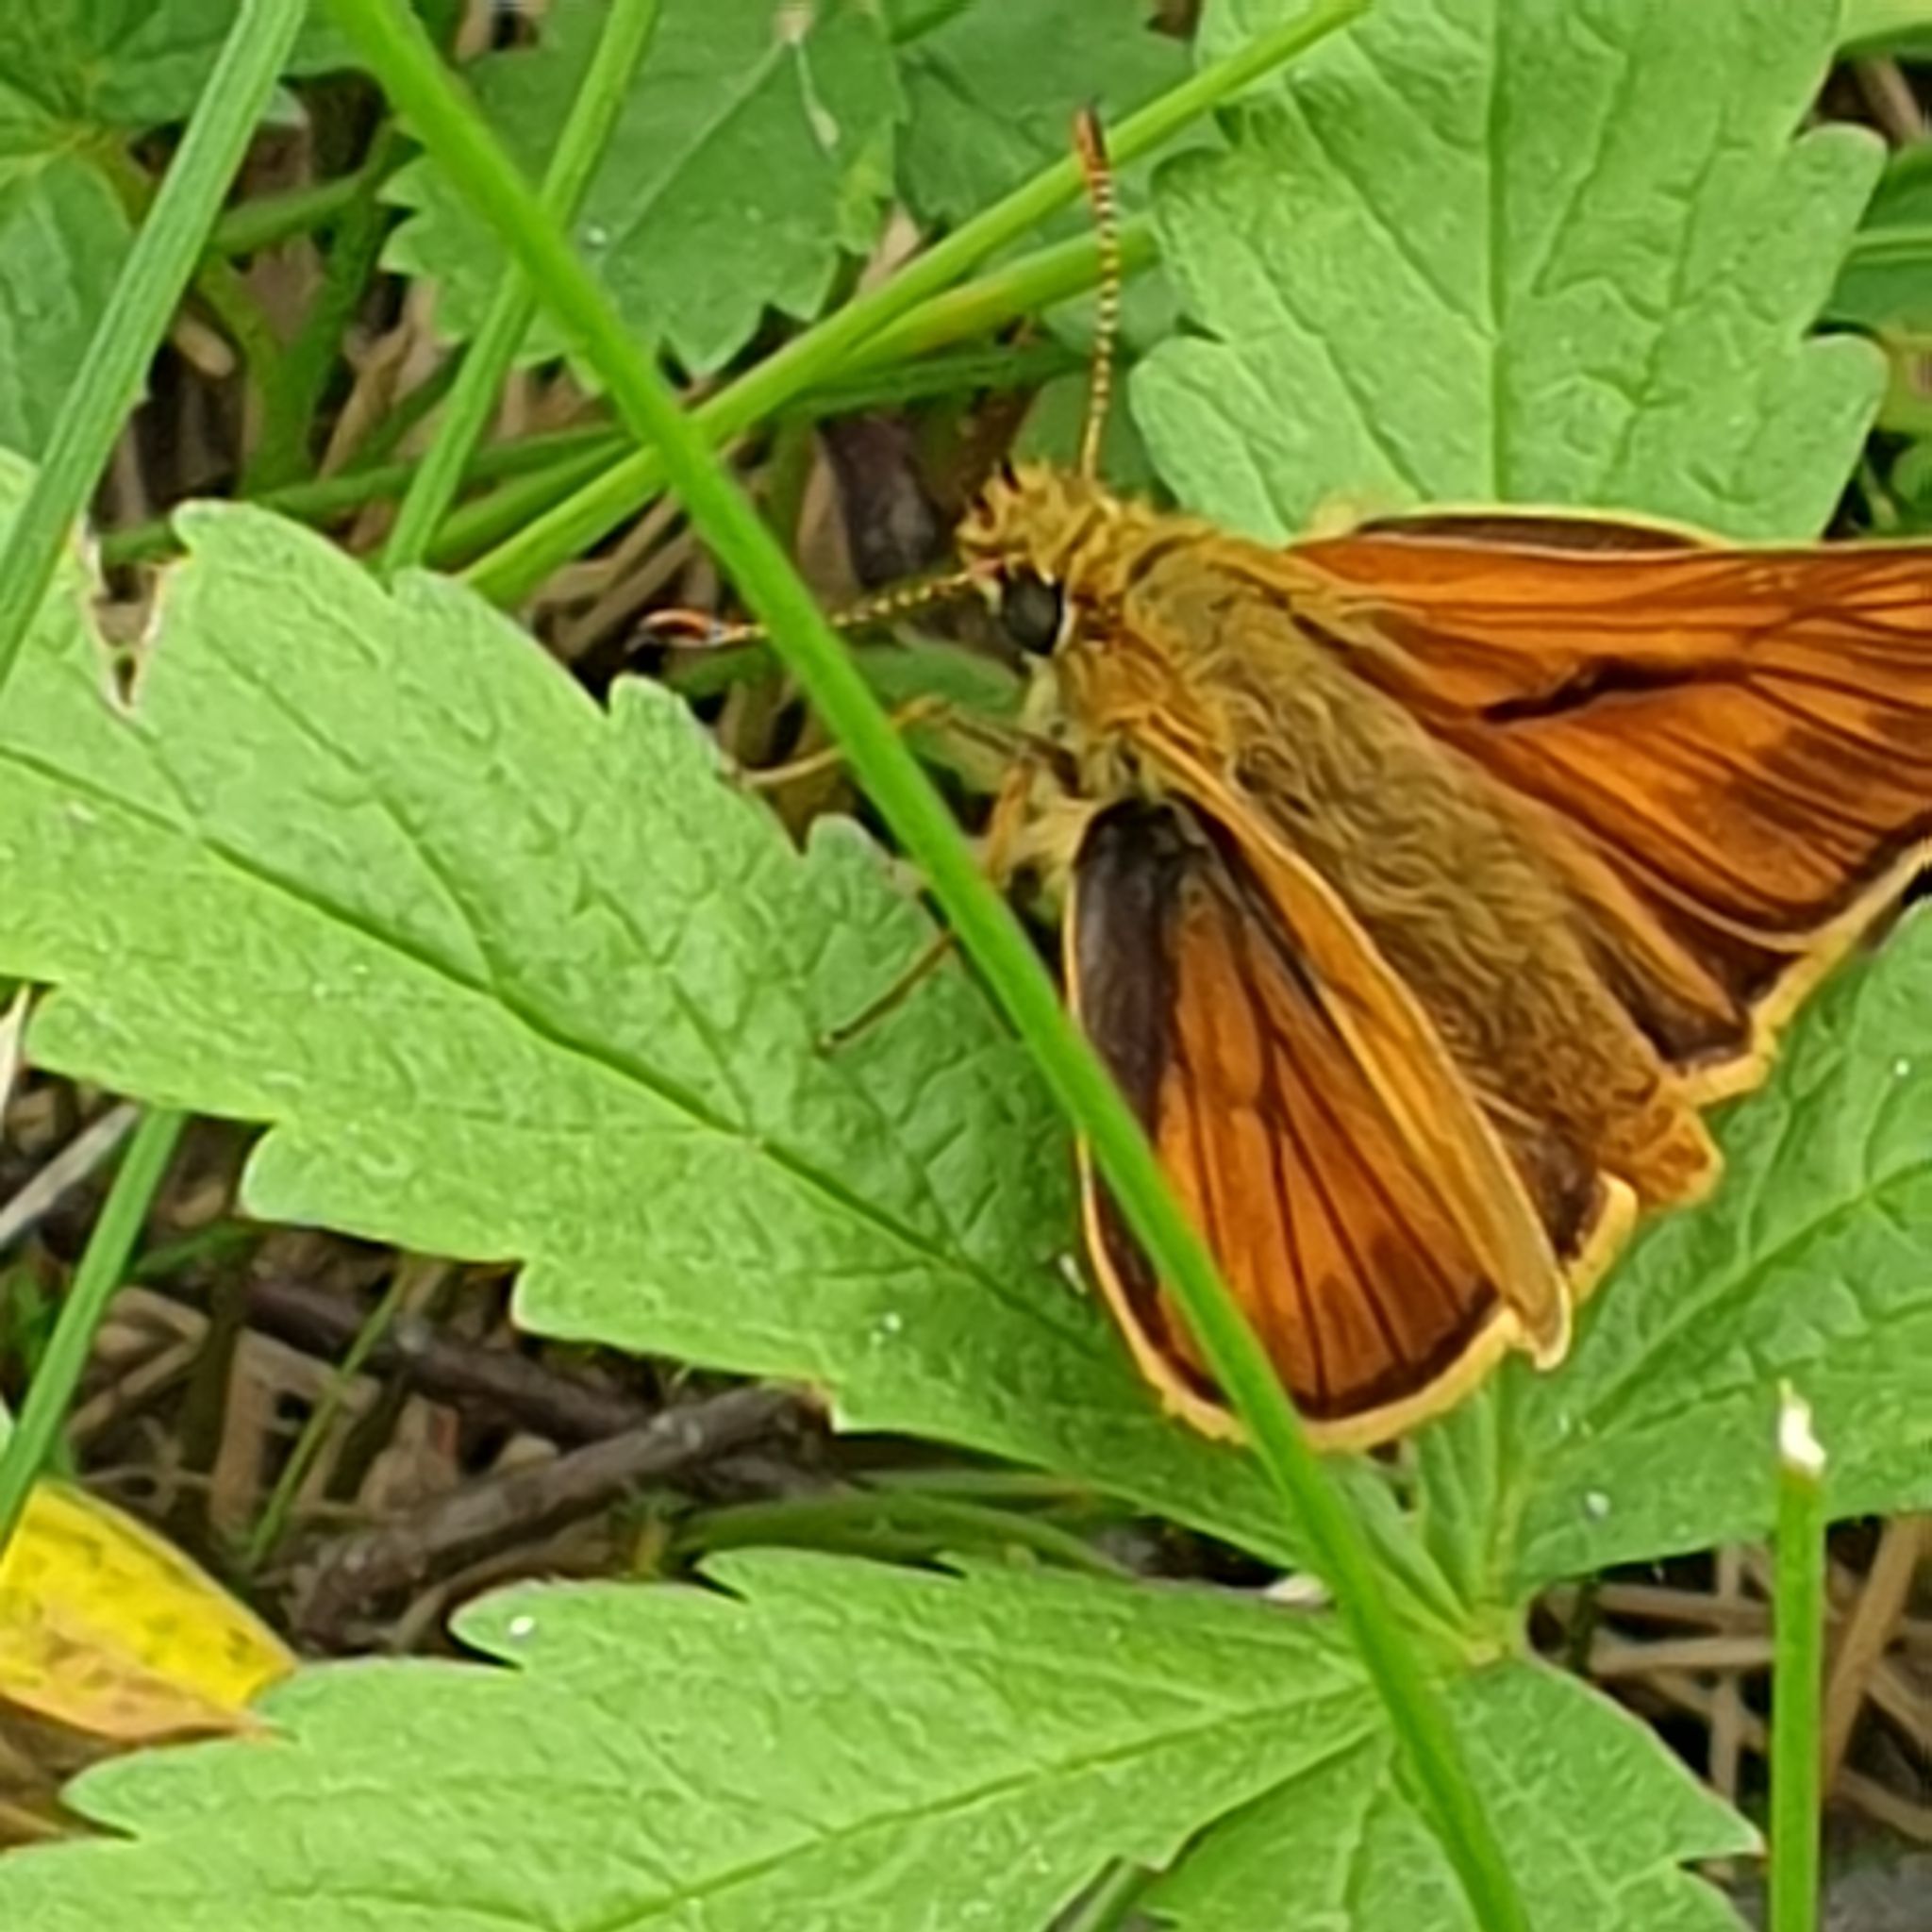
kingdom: Animalia
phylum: Arthropoda
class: Insecta
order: Lepidoptera
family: Hesperiidae
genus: Ochlodes
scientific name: Ochlodes venata
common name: Large skipper
